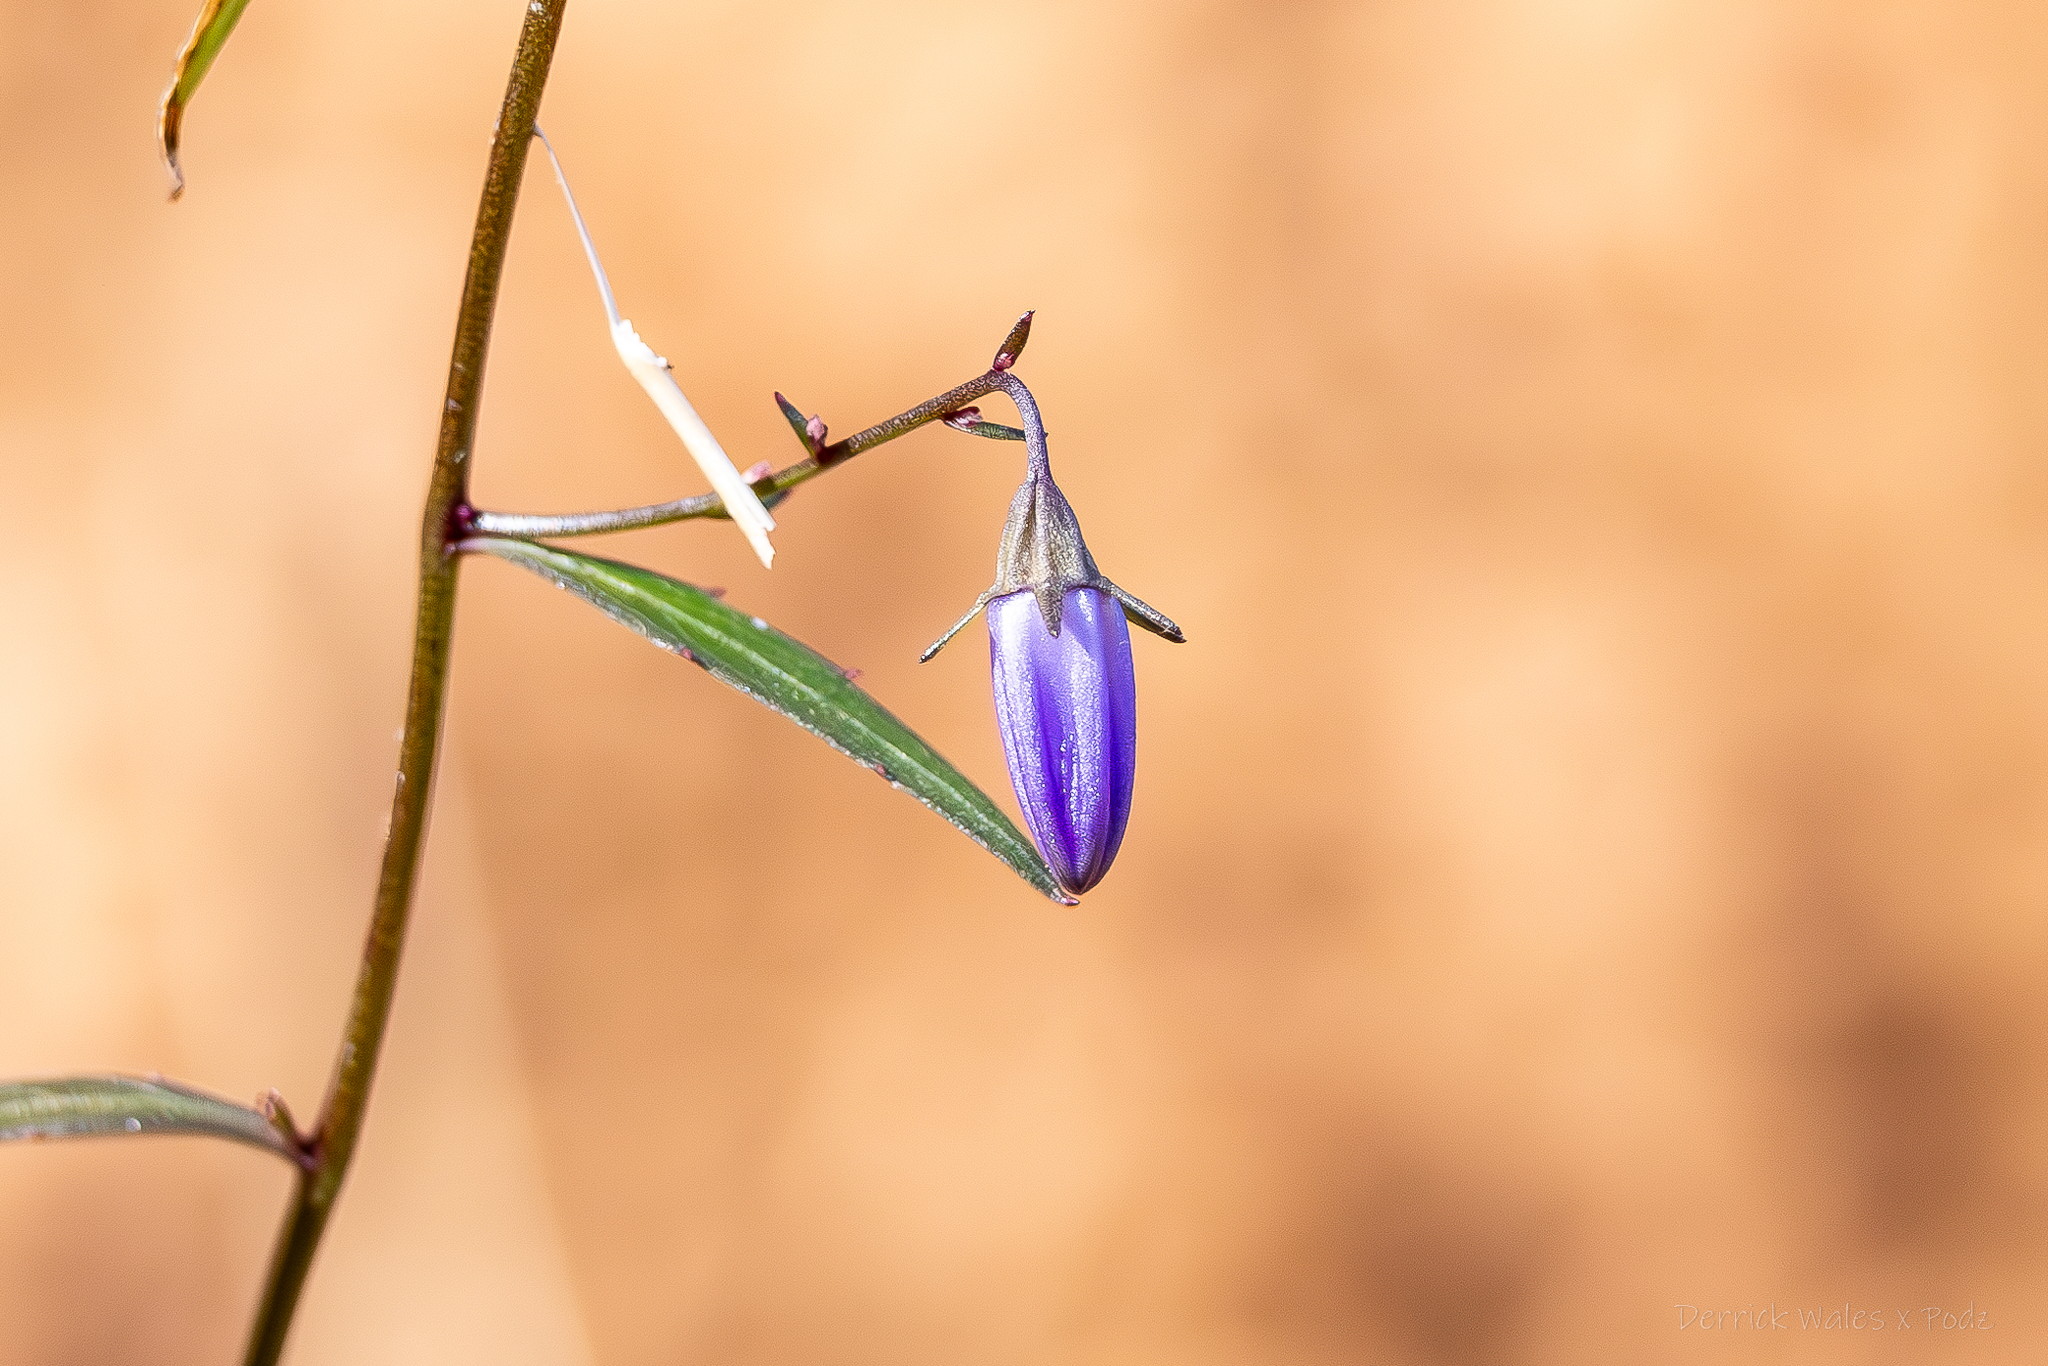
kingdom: Plantae
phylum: Tracheophyta
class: Magnoliopsida
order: Asterales
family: Campanulaceae
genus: Campanula
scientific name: Campanula divaricata
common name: Appalachian bellflower
